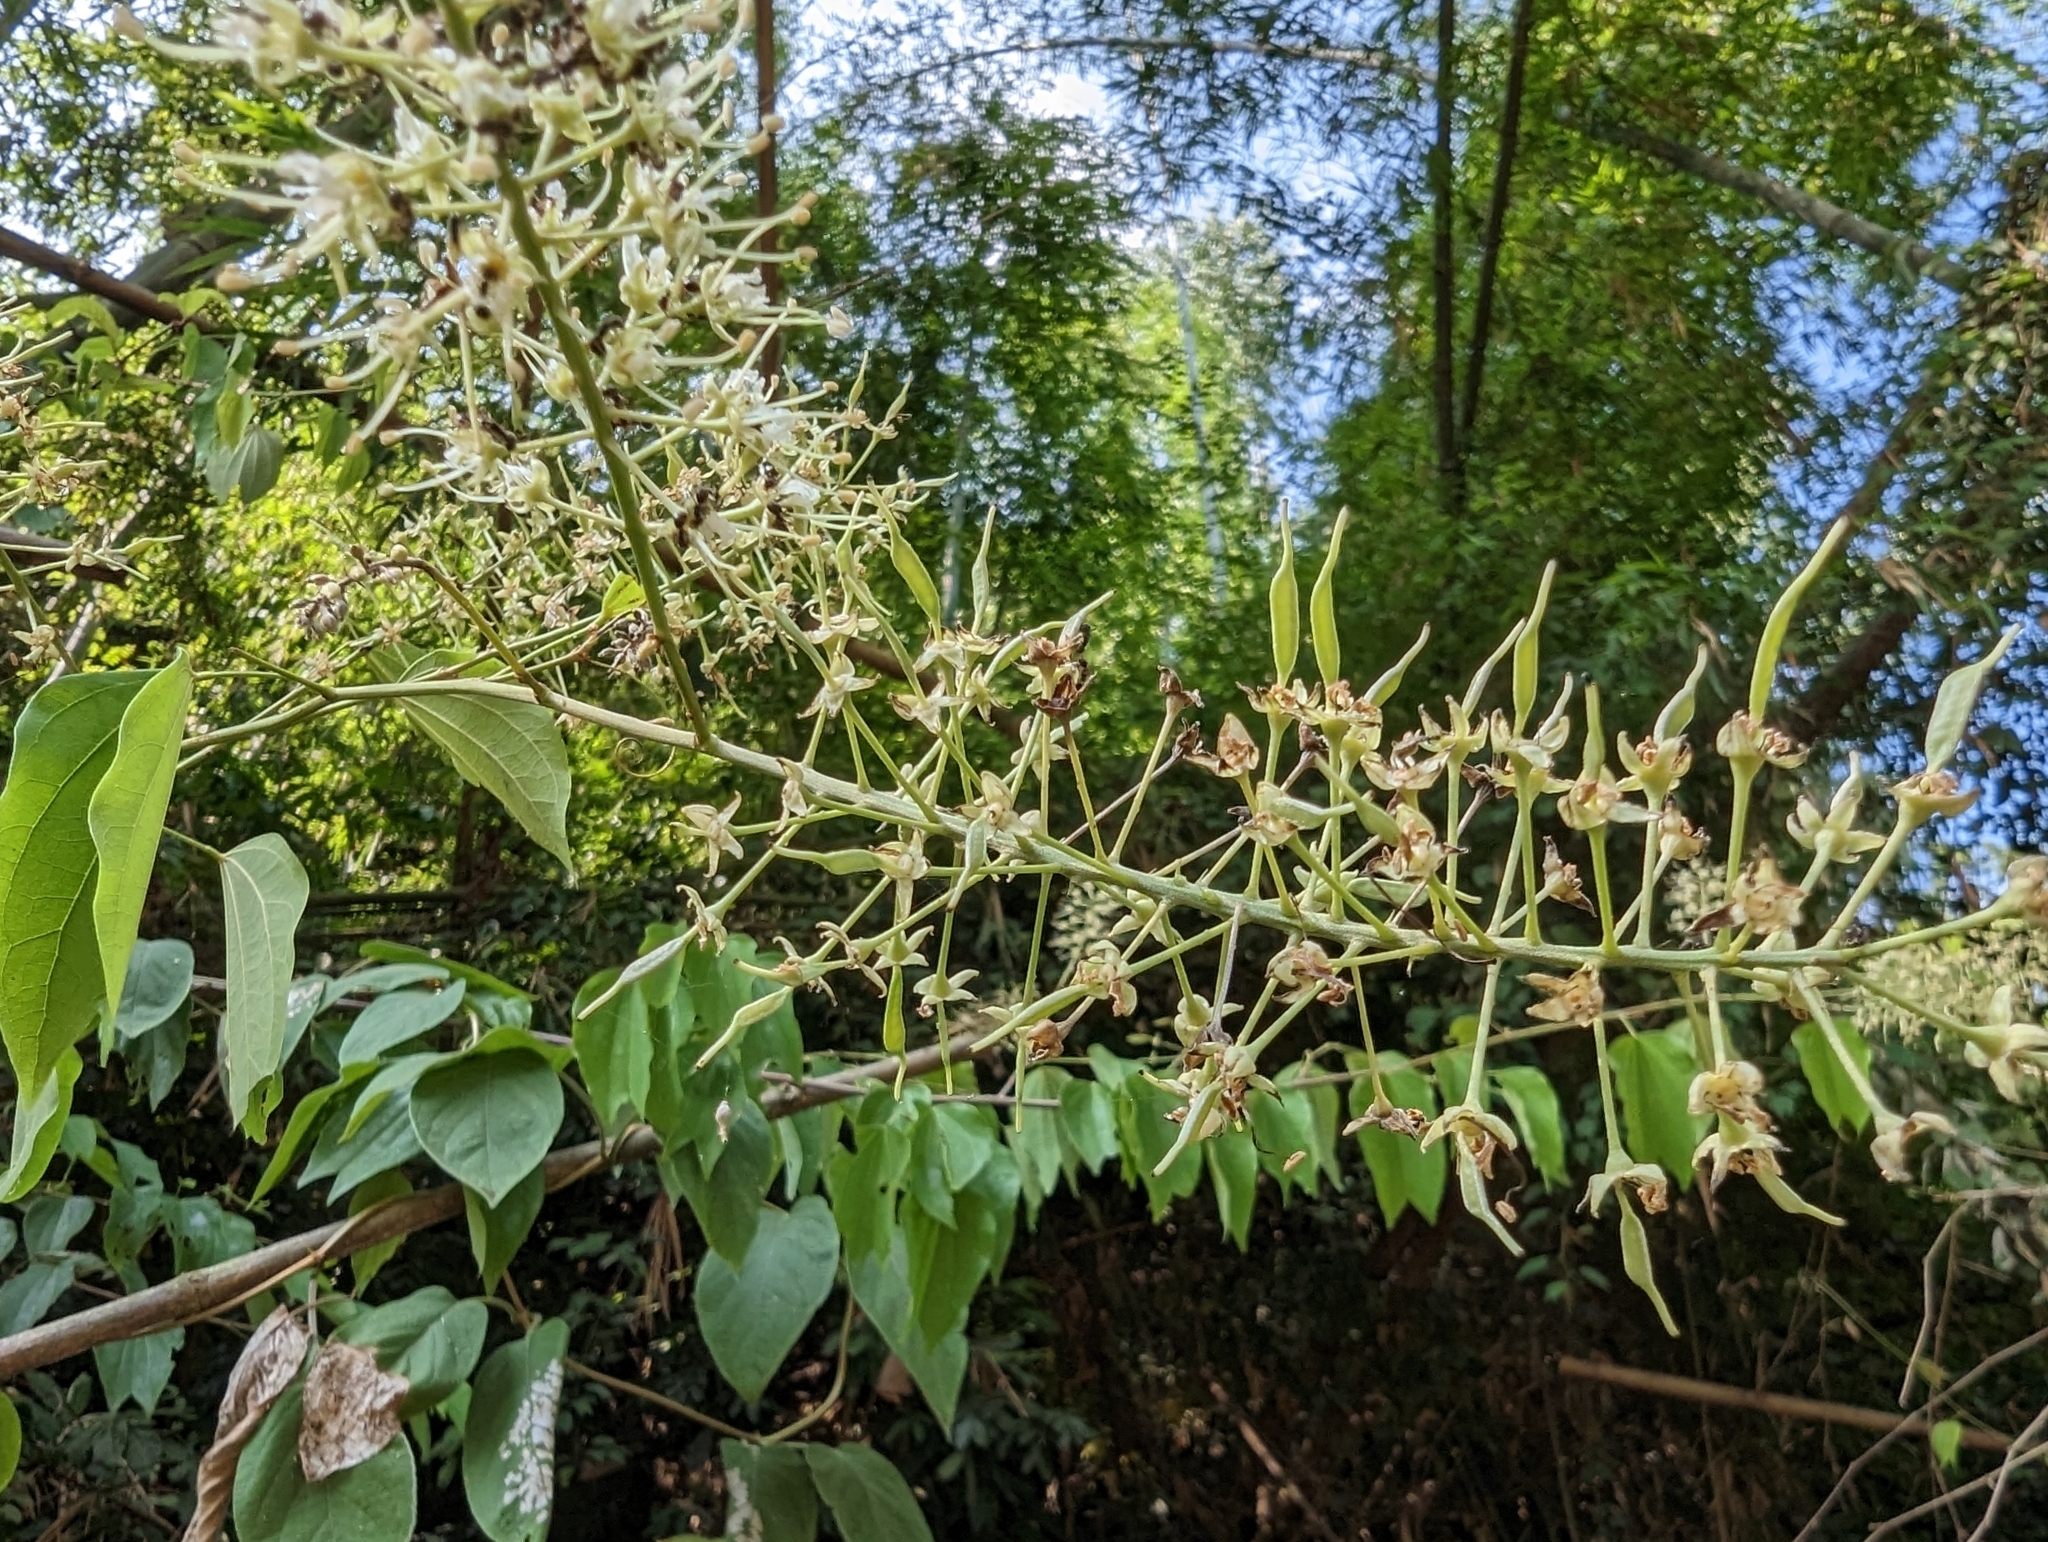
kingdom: Plantae
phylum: Tracheophyta
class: Magnoliopsida
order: Fabales
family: Fabaceae
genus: Phanera
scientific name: Phanera championii
